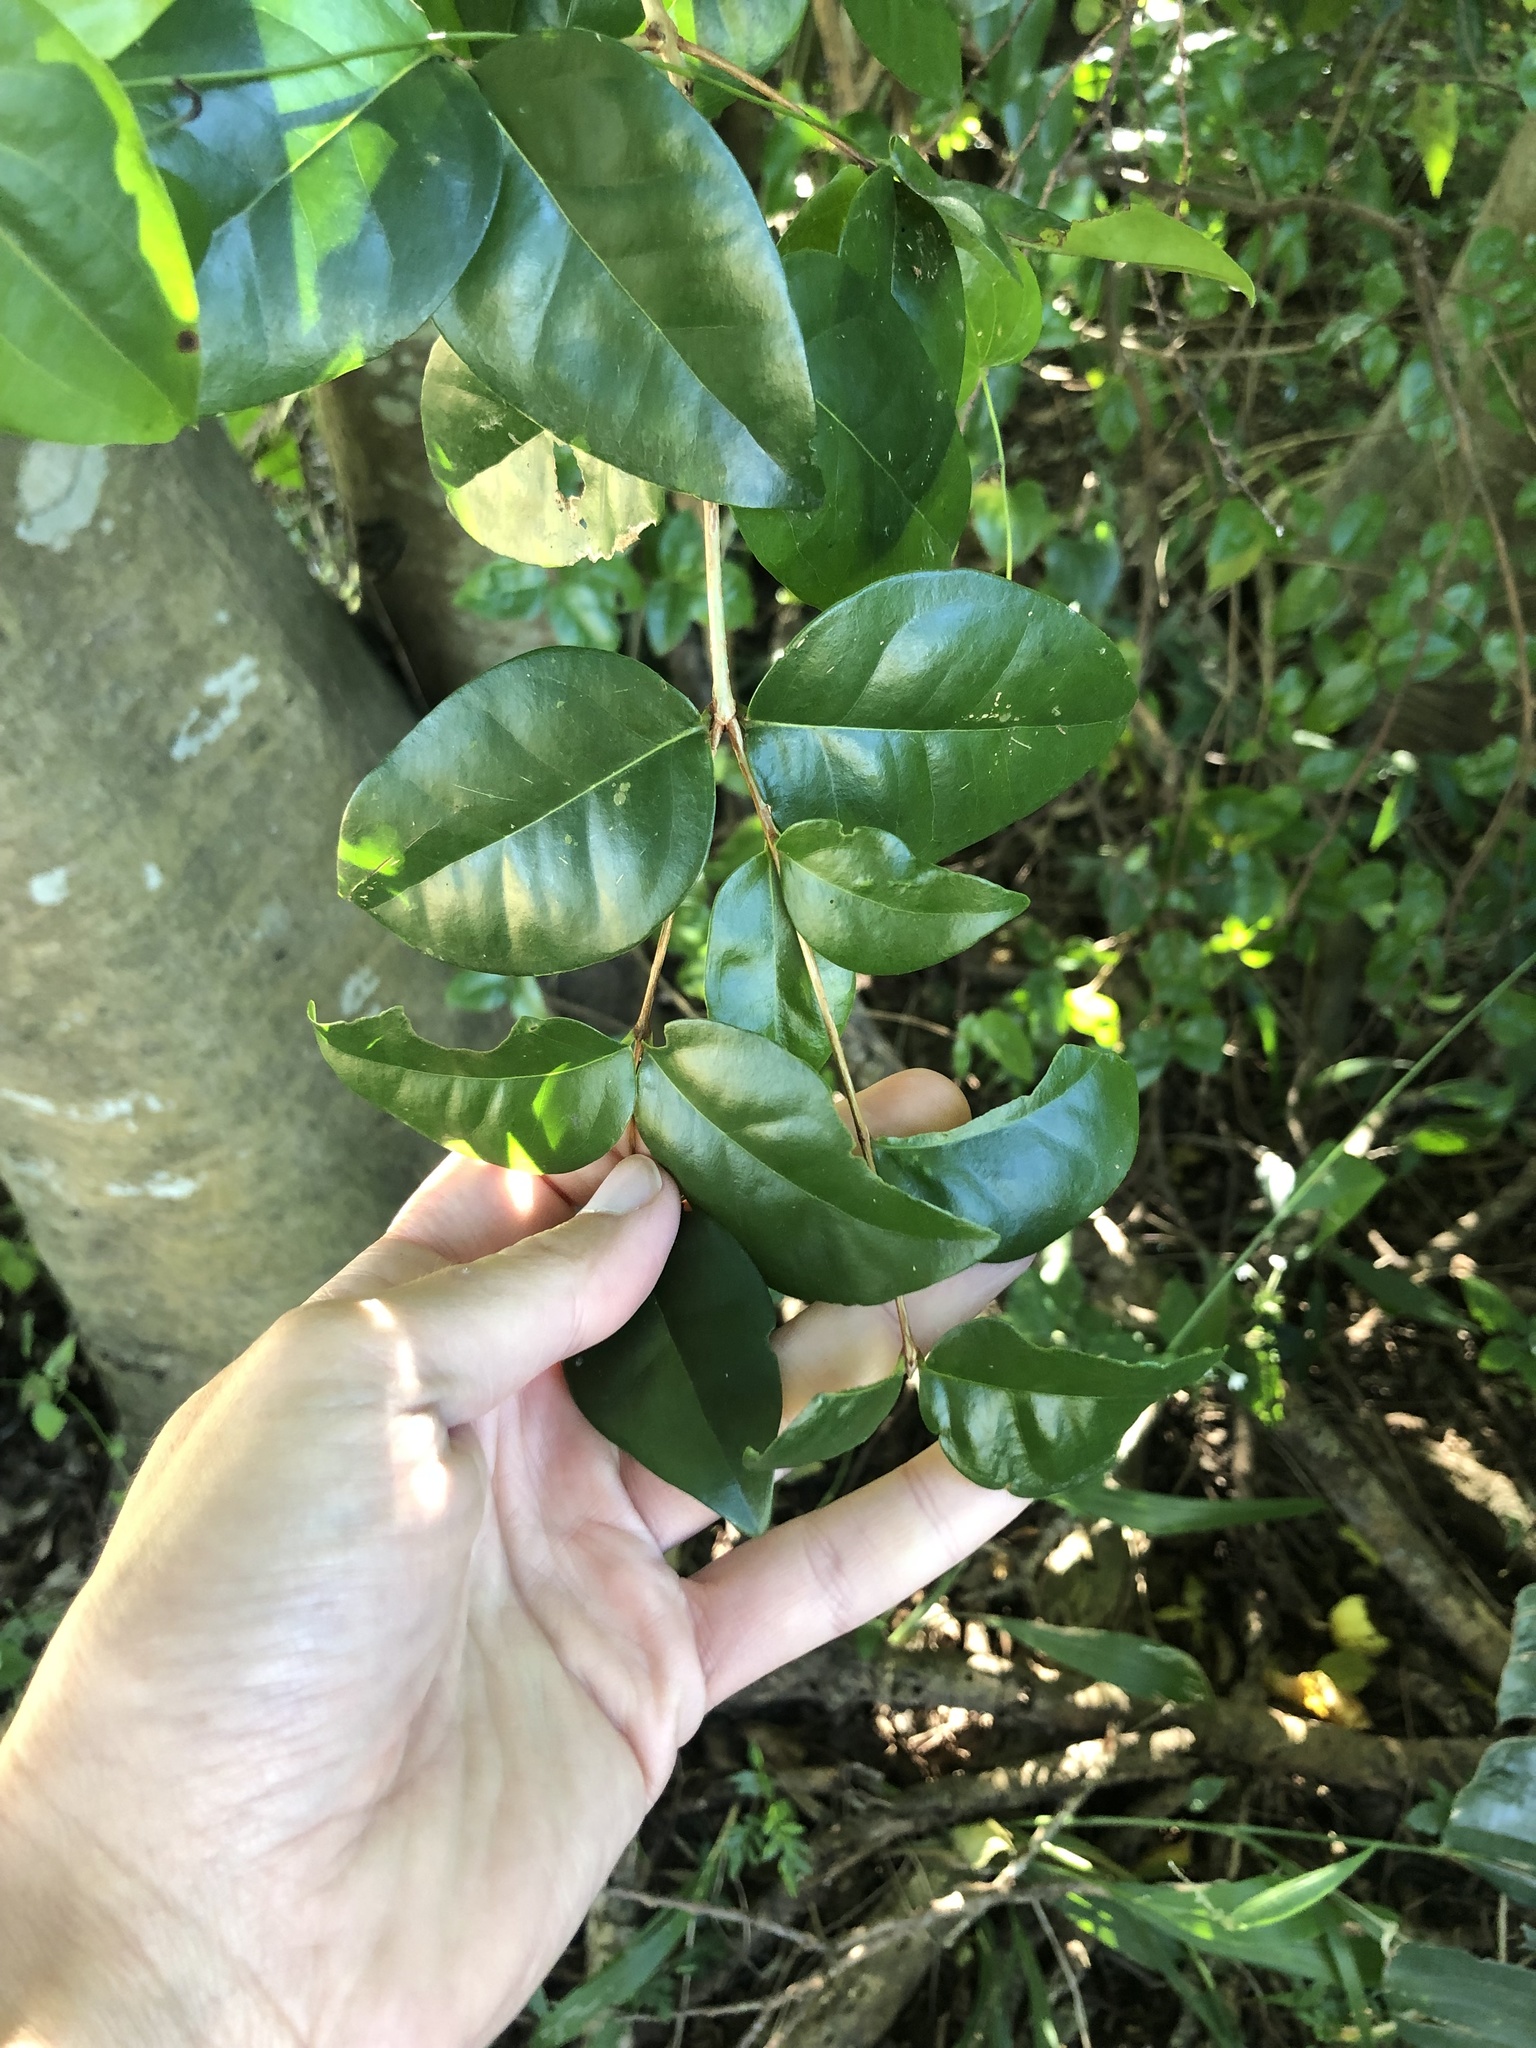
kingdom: Plantae
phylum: Tracheophyta
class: Magnoliopsida
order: Myrtales
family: Myrtaceae
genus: Eugenia
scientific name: Eugenia uniflora
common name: Surinam cherry
